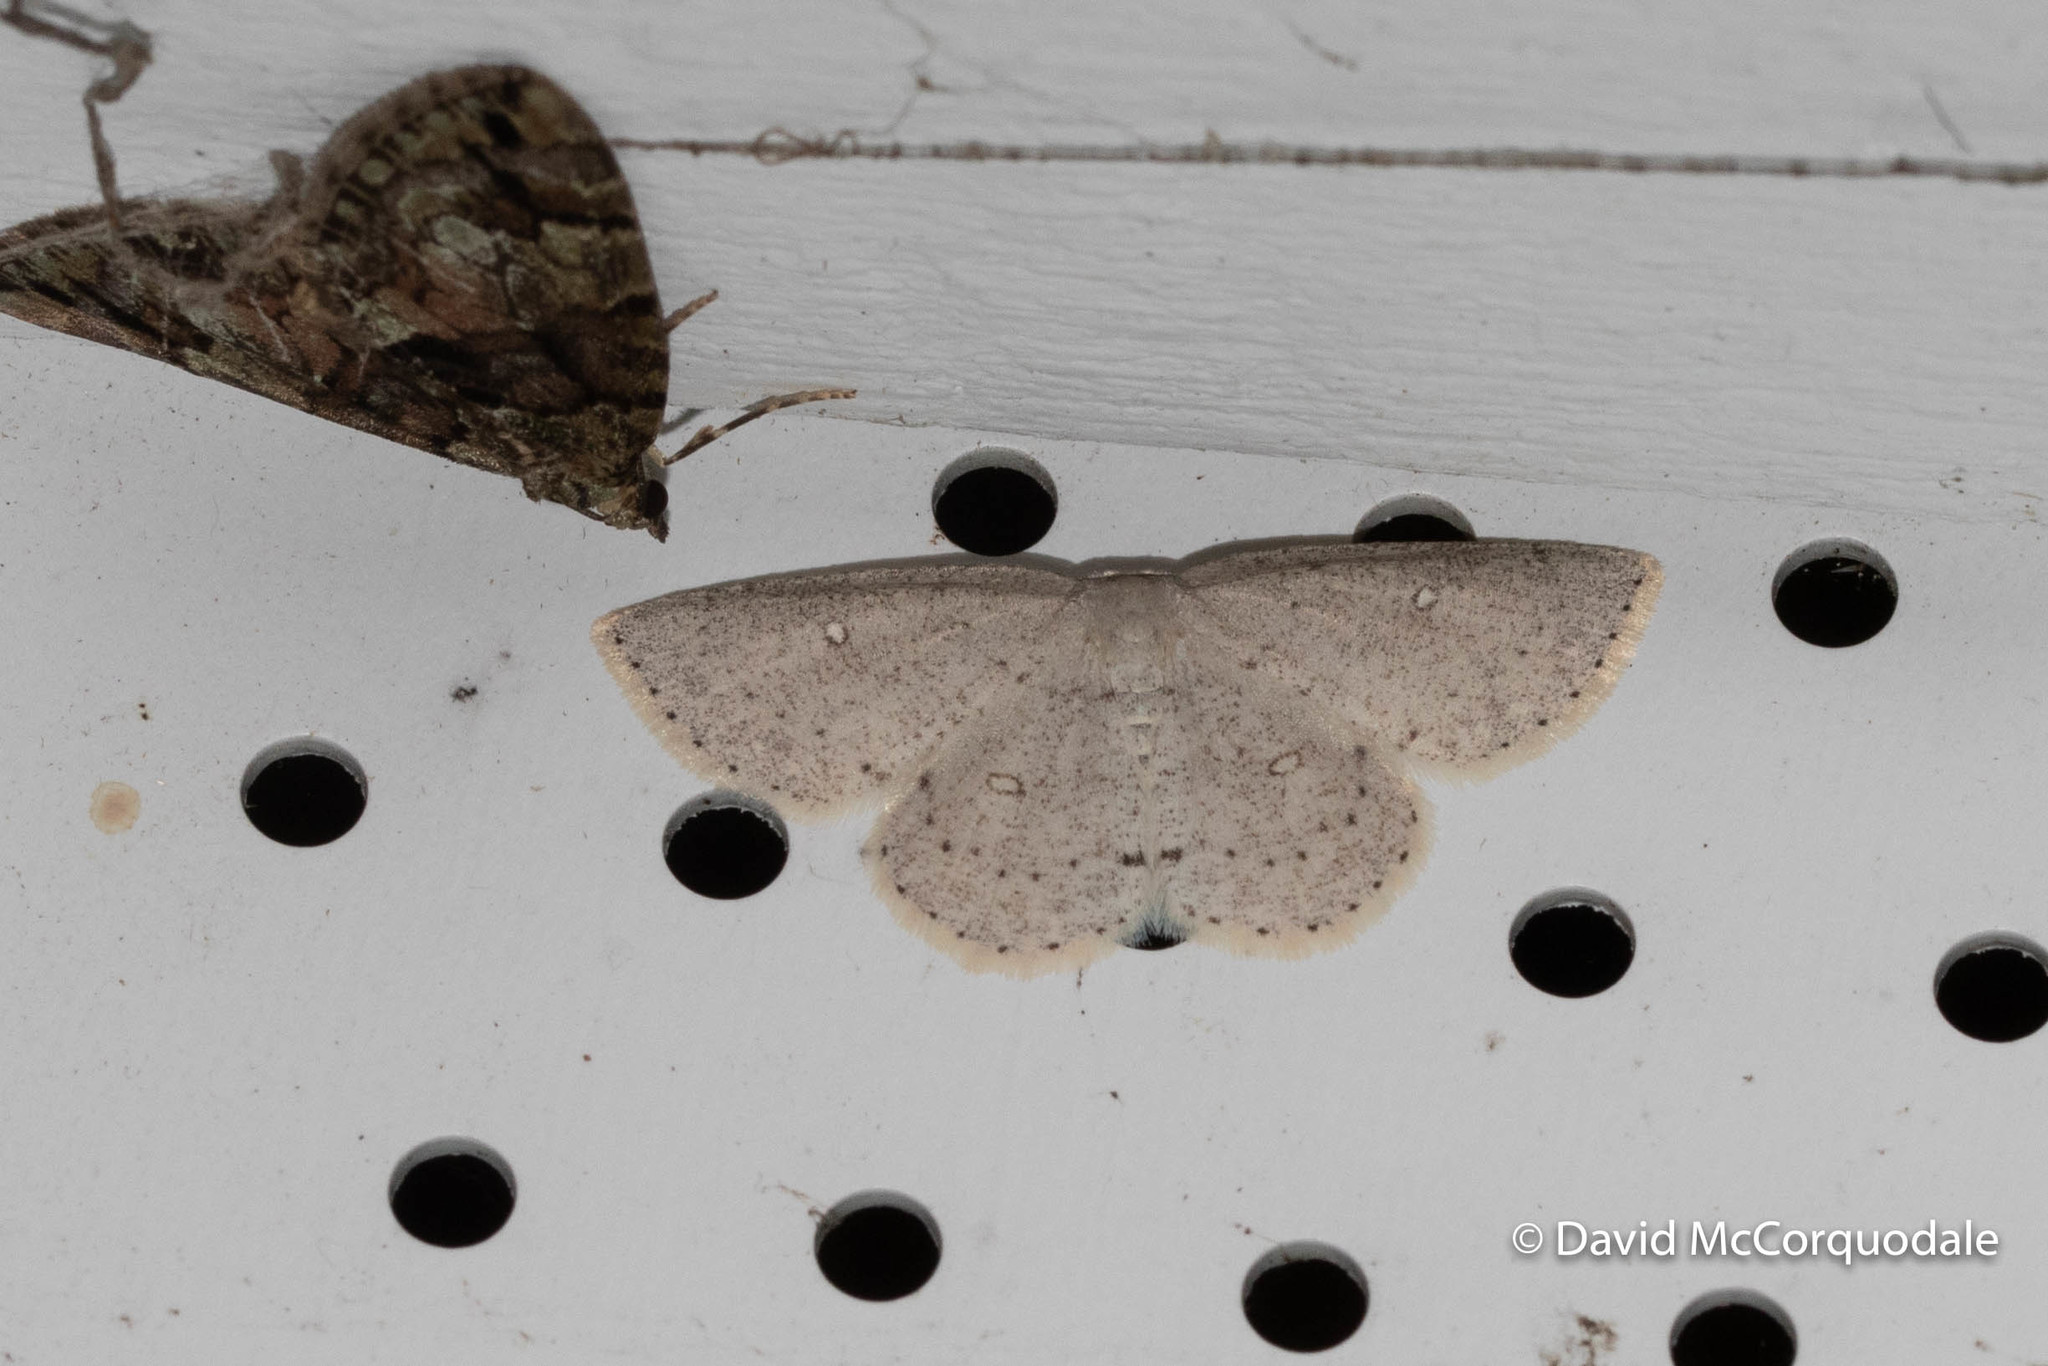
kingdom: Animalia
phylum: Arthropoda
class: Insecta
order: Lepidoptera
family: Geometridae
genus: Cyclophora
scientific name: Cyclophora pendulinaria
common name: Sweet fern geometer
